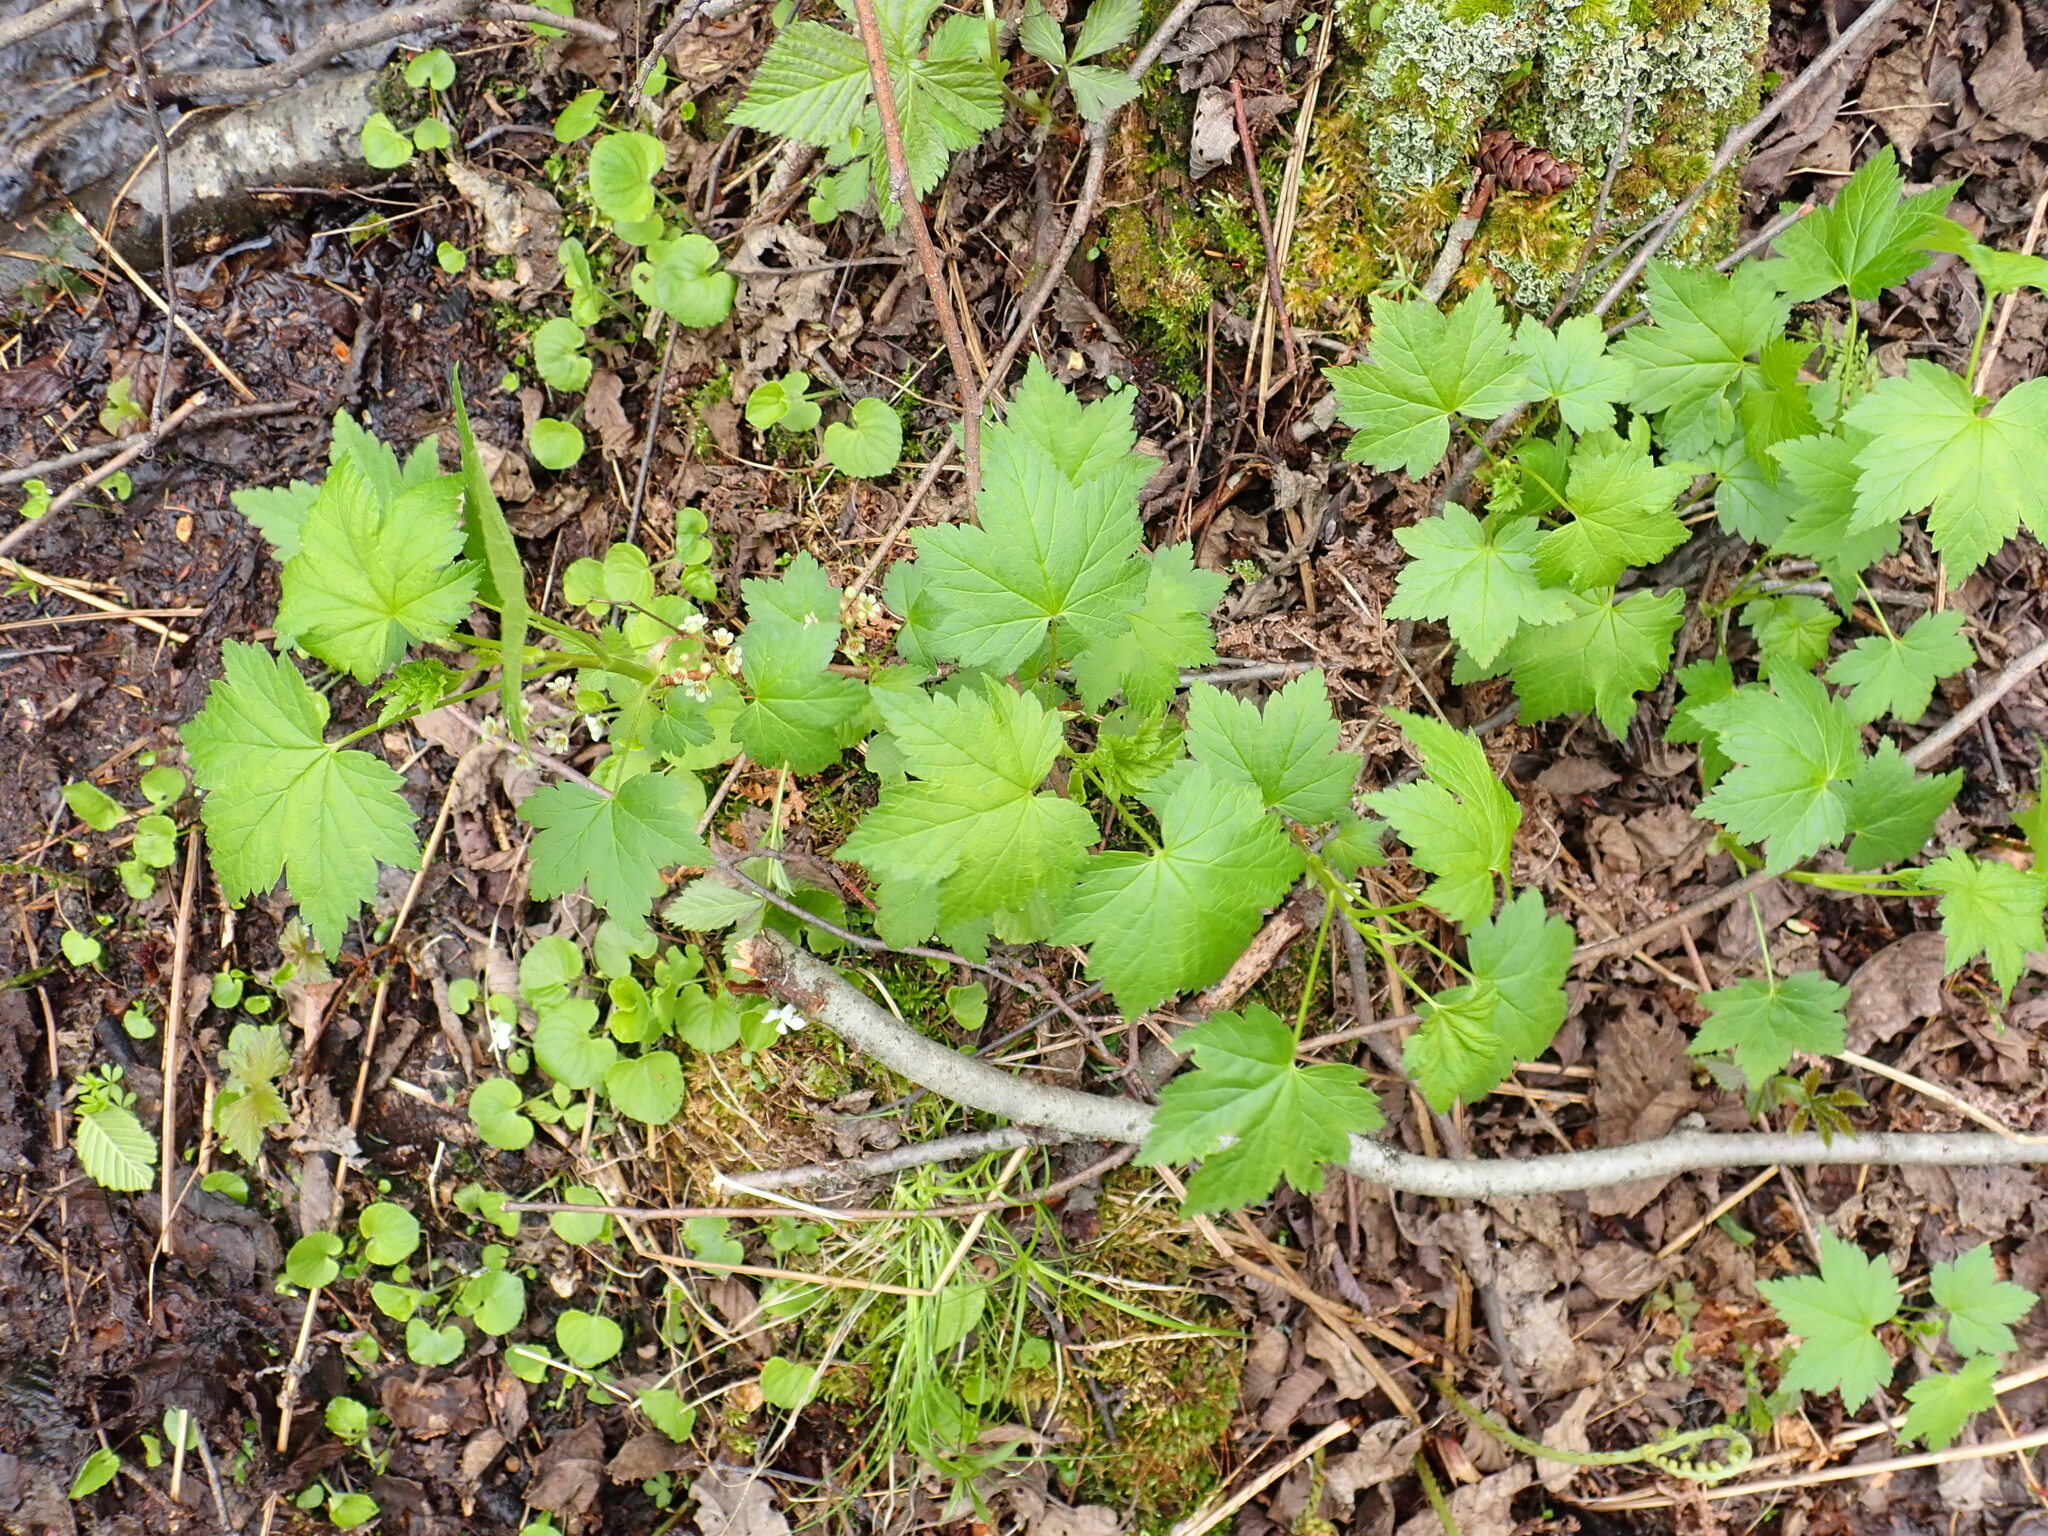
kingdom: Plantae
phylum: Tracheophyta
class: Magnoliopsida
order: Saxifragales
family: Grossulariaceae
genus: Ribes
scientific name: Ribes glandulosum
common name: Skunk currant
